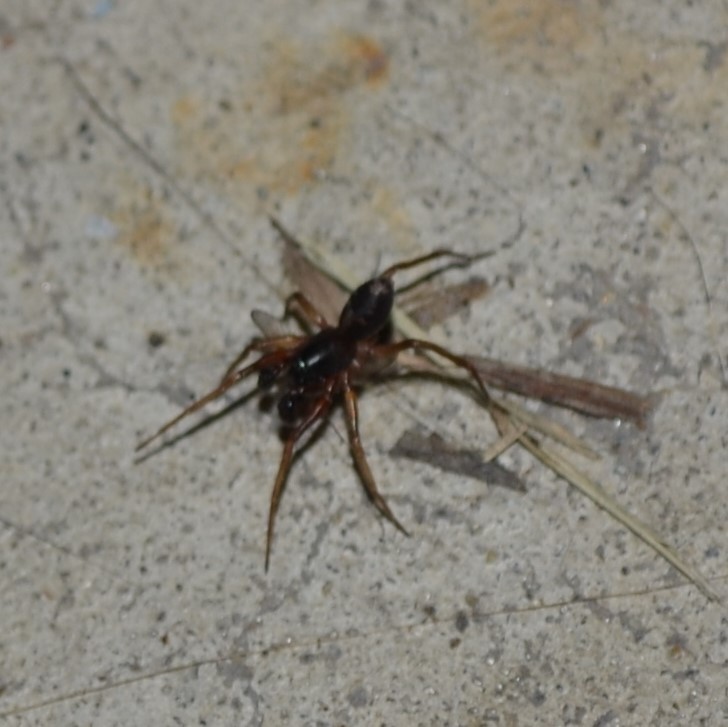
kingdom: Animalia
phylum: Arthropoda
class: Arachnida
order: Araneae
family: Corinnidae
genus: Falconina
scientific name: Falconina gracilis
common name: Antmimic spider
